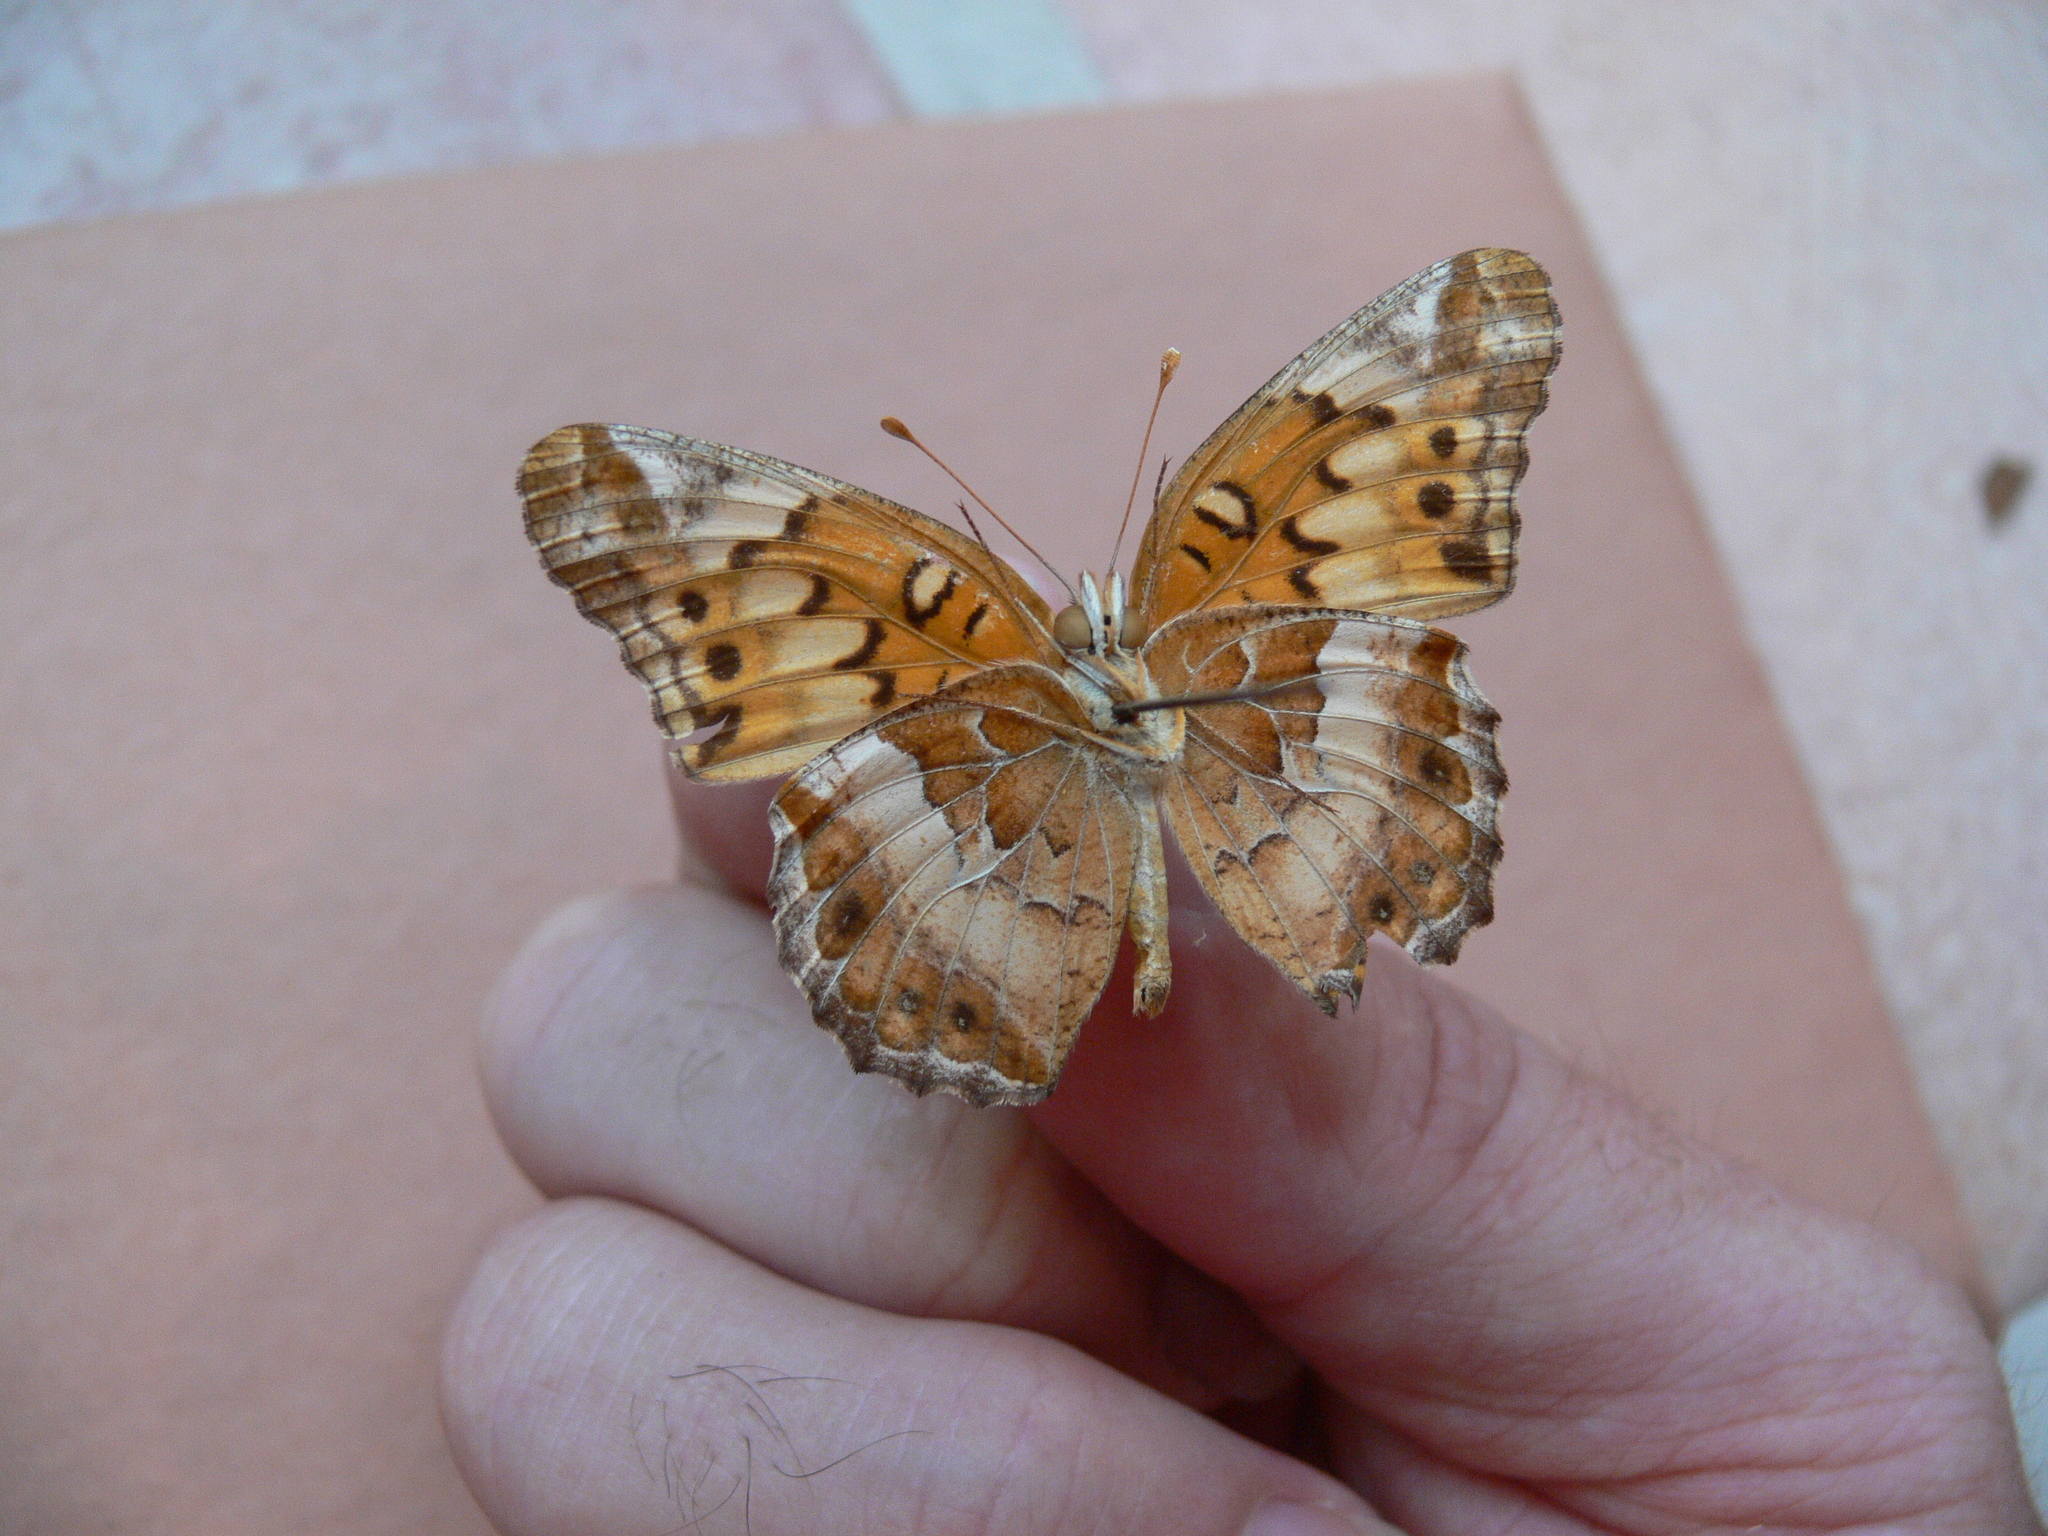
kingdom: Animalia
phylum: Arthropoda
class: Insecta
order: Lepidoptera
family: Nymphalidae
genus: Euptoieta
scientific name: Euptoieta claudia
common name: Variegated fritillary
